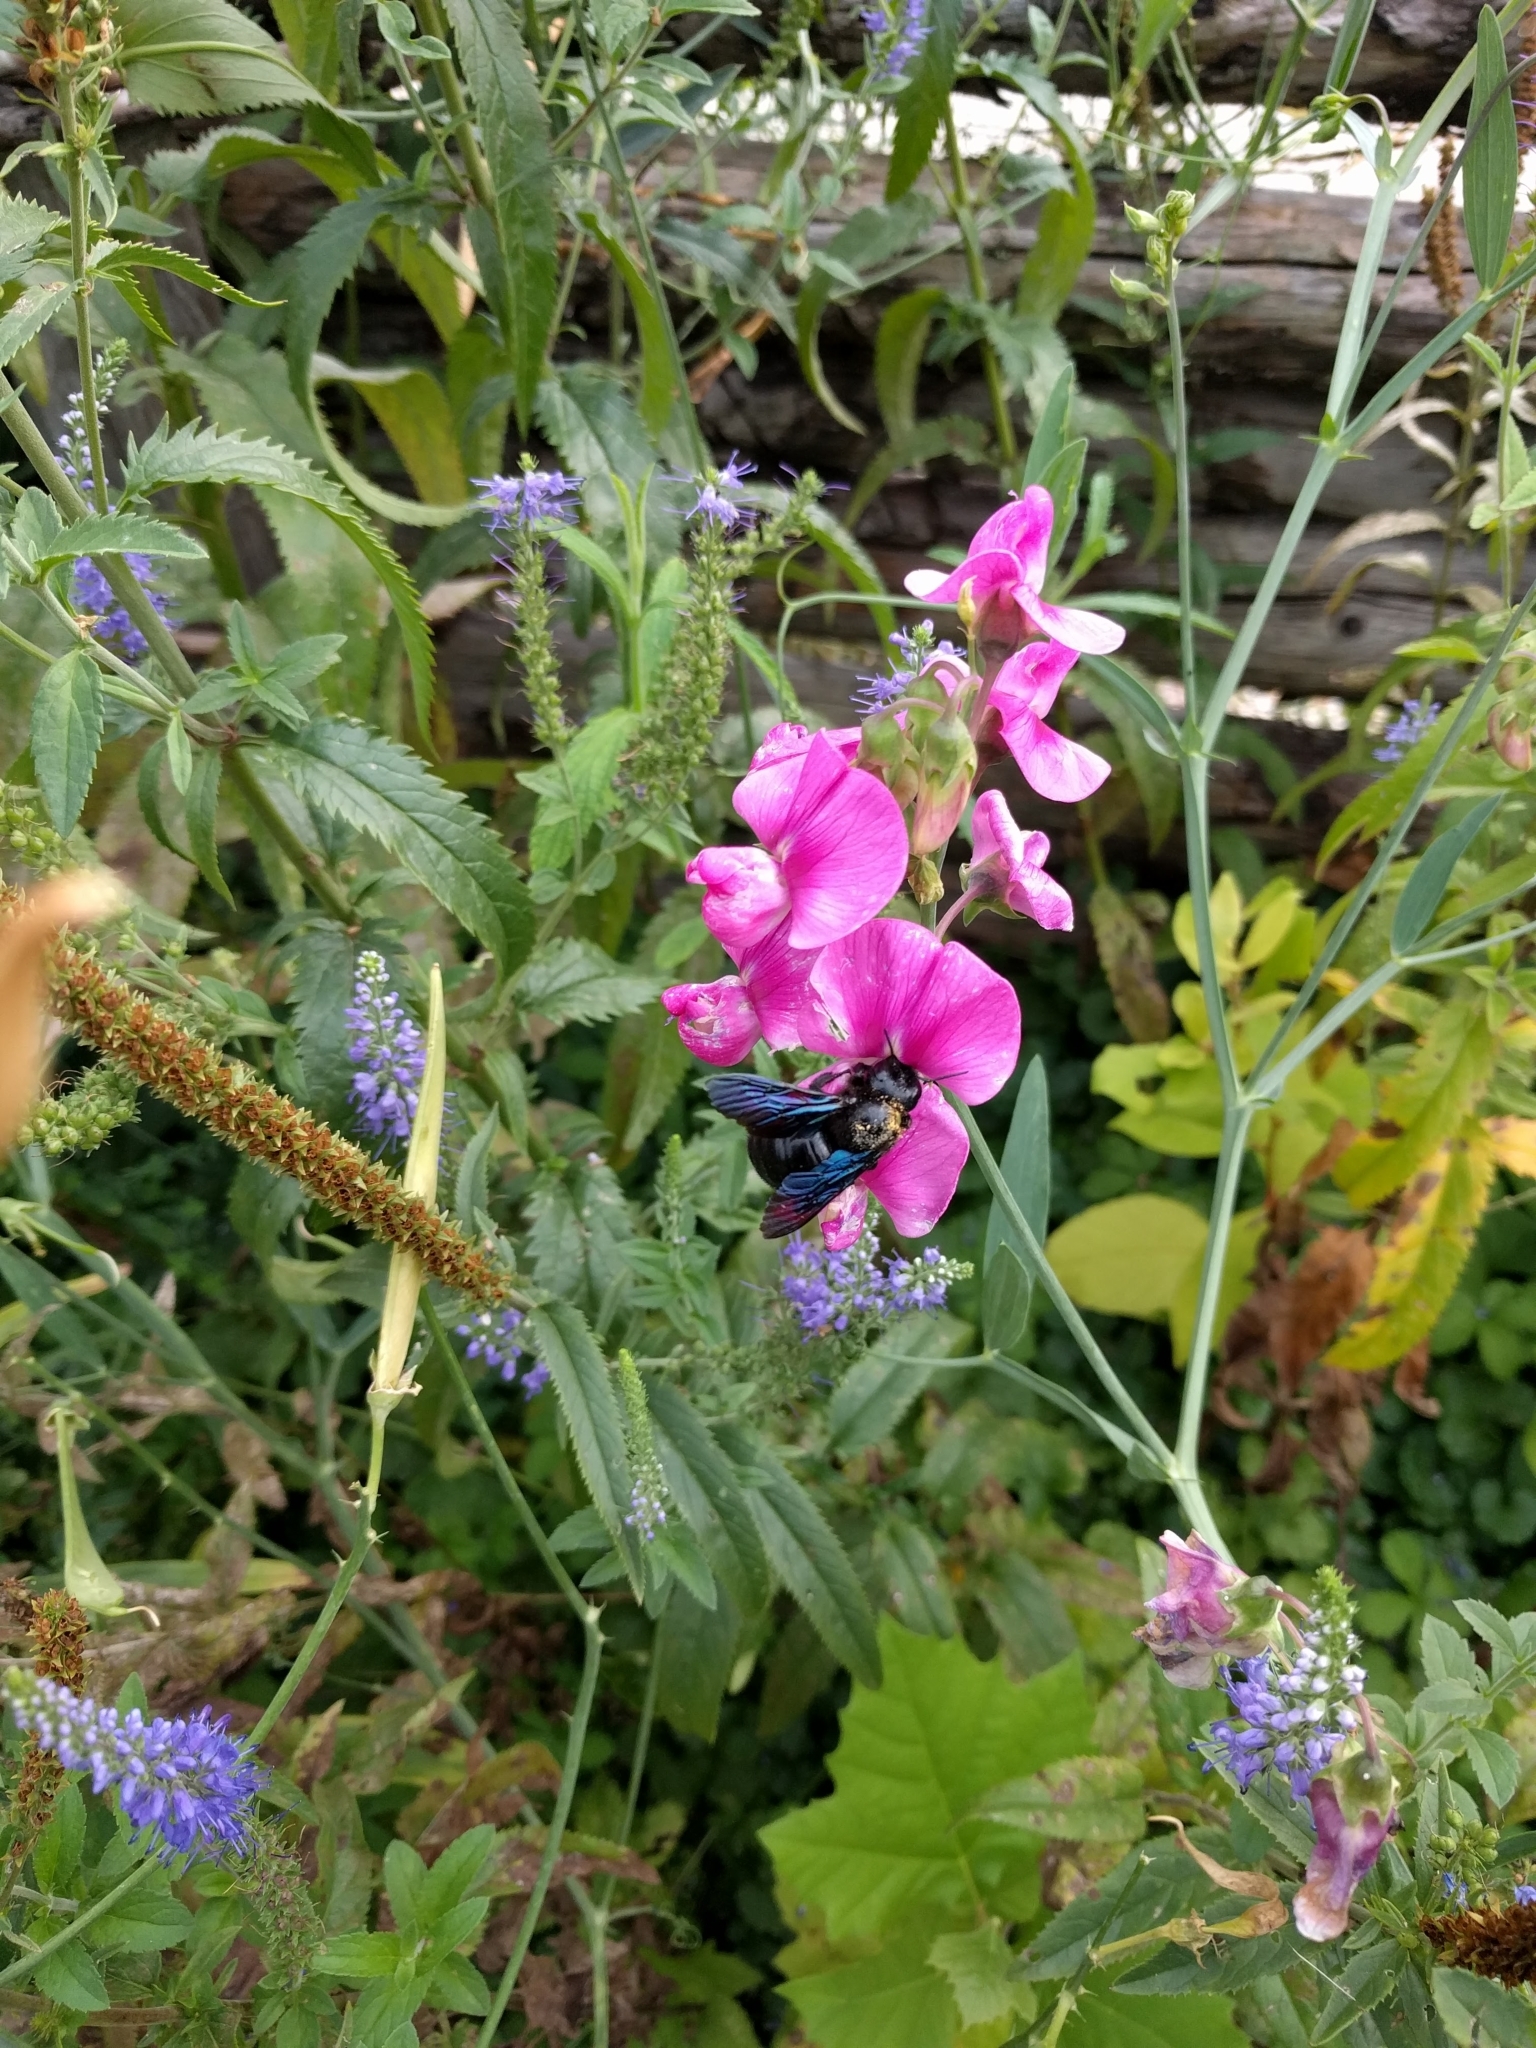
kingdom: Animalia
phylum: Arthropoda
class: Insecta
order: Hymenoptera
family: Apidae
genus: Xylocopa
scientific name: Xylocopa
